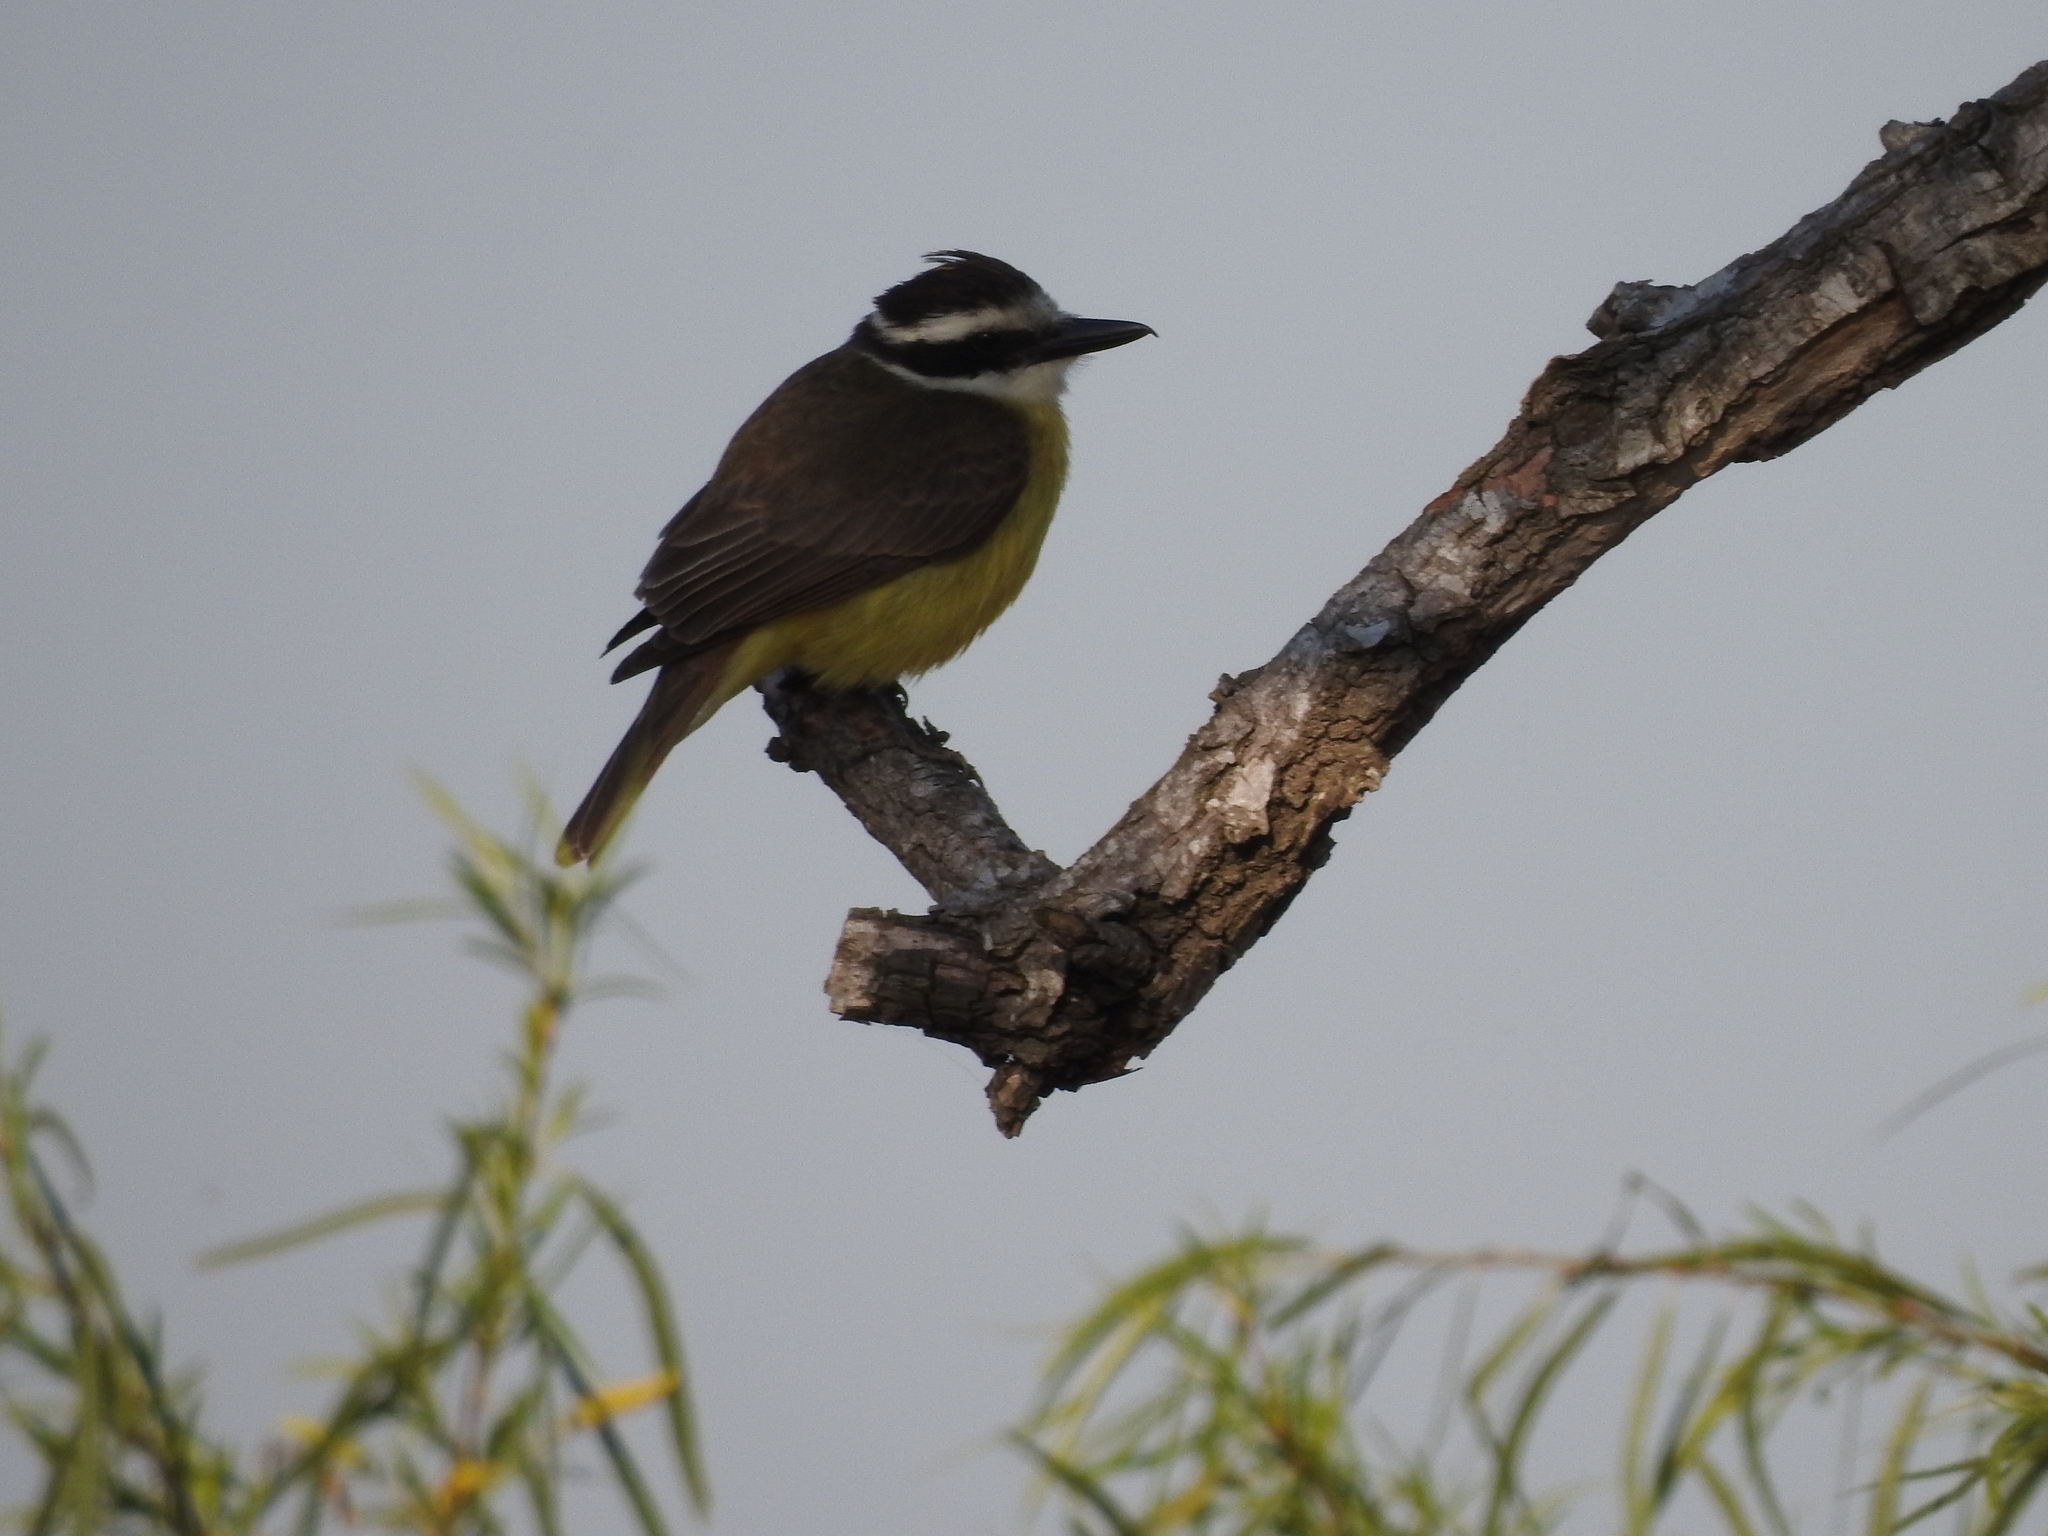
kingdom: Animalia
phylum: Chordata
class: Aves
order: Passeriformes
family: Tyrannidae
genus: Pitangus
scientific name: Pitangus sulphuratus
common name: Great kiskadee
